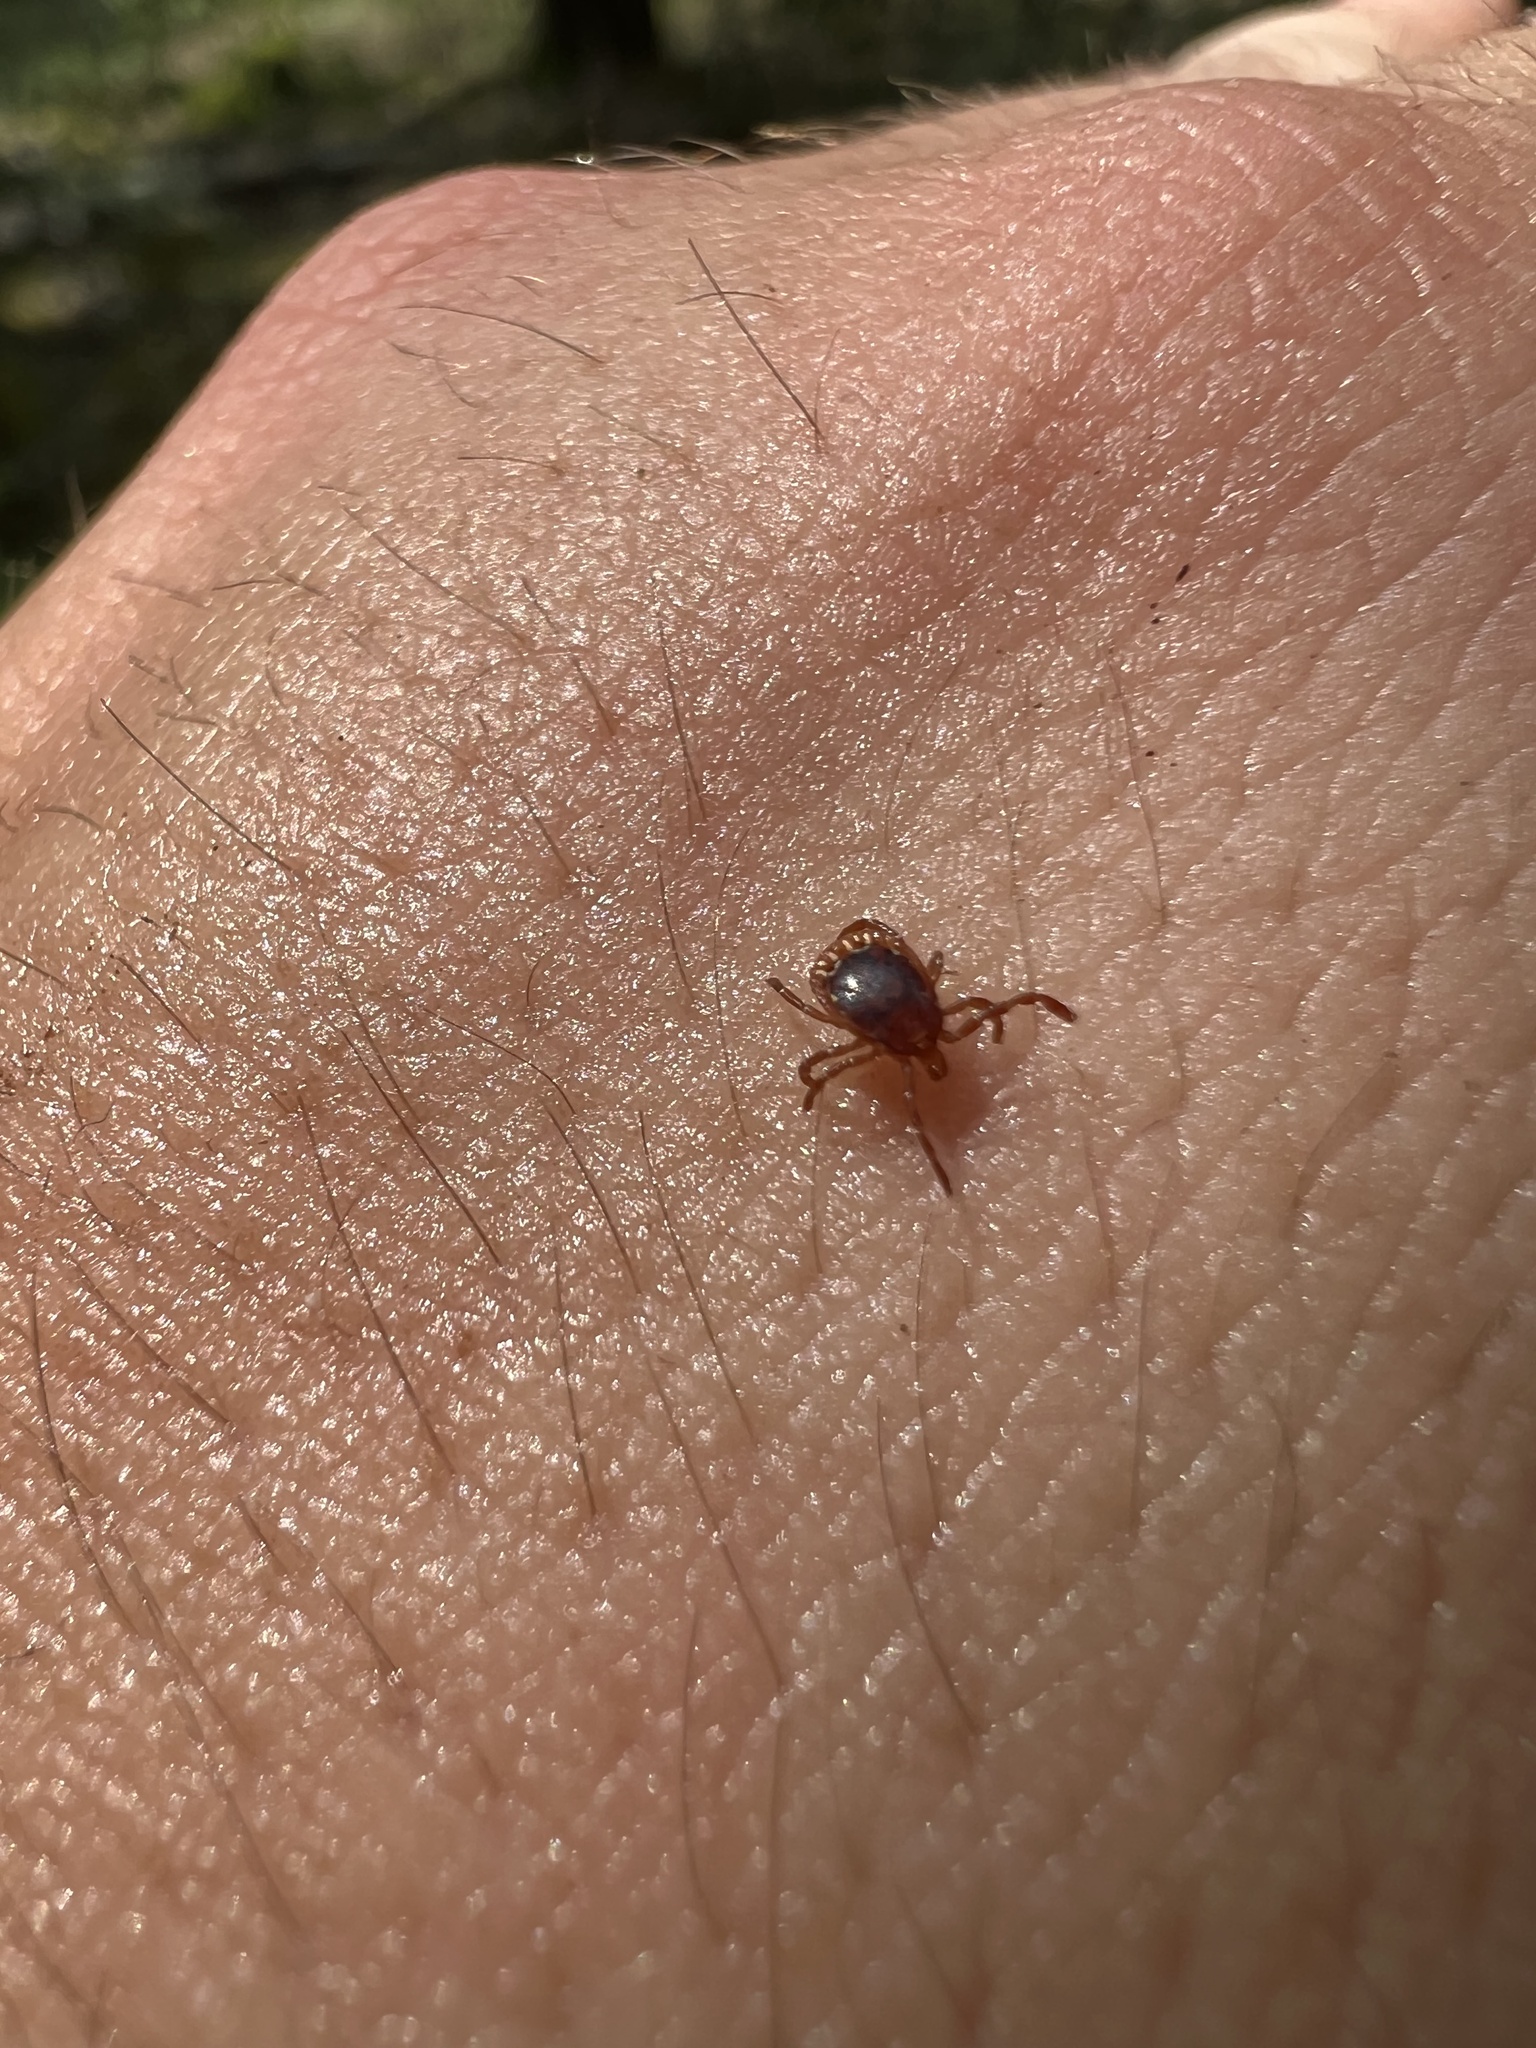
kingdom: Animalia
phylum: Arthropoda
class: Arachnida
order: Ixodida
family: Ixodidae
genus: Amblyomma
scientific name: Amblyomma americanum
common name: Lone star tick
